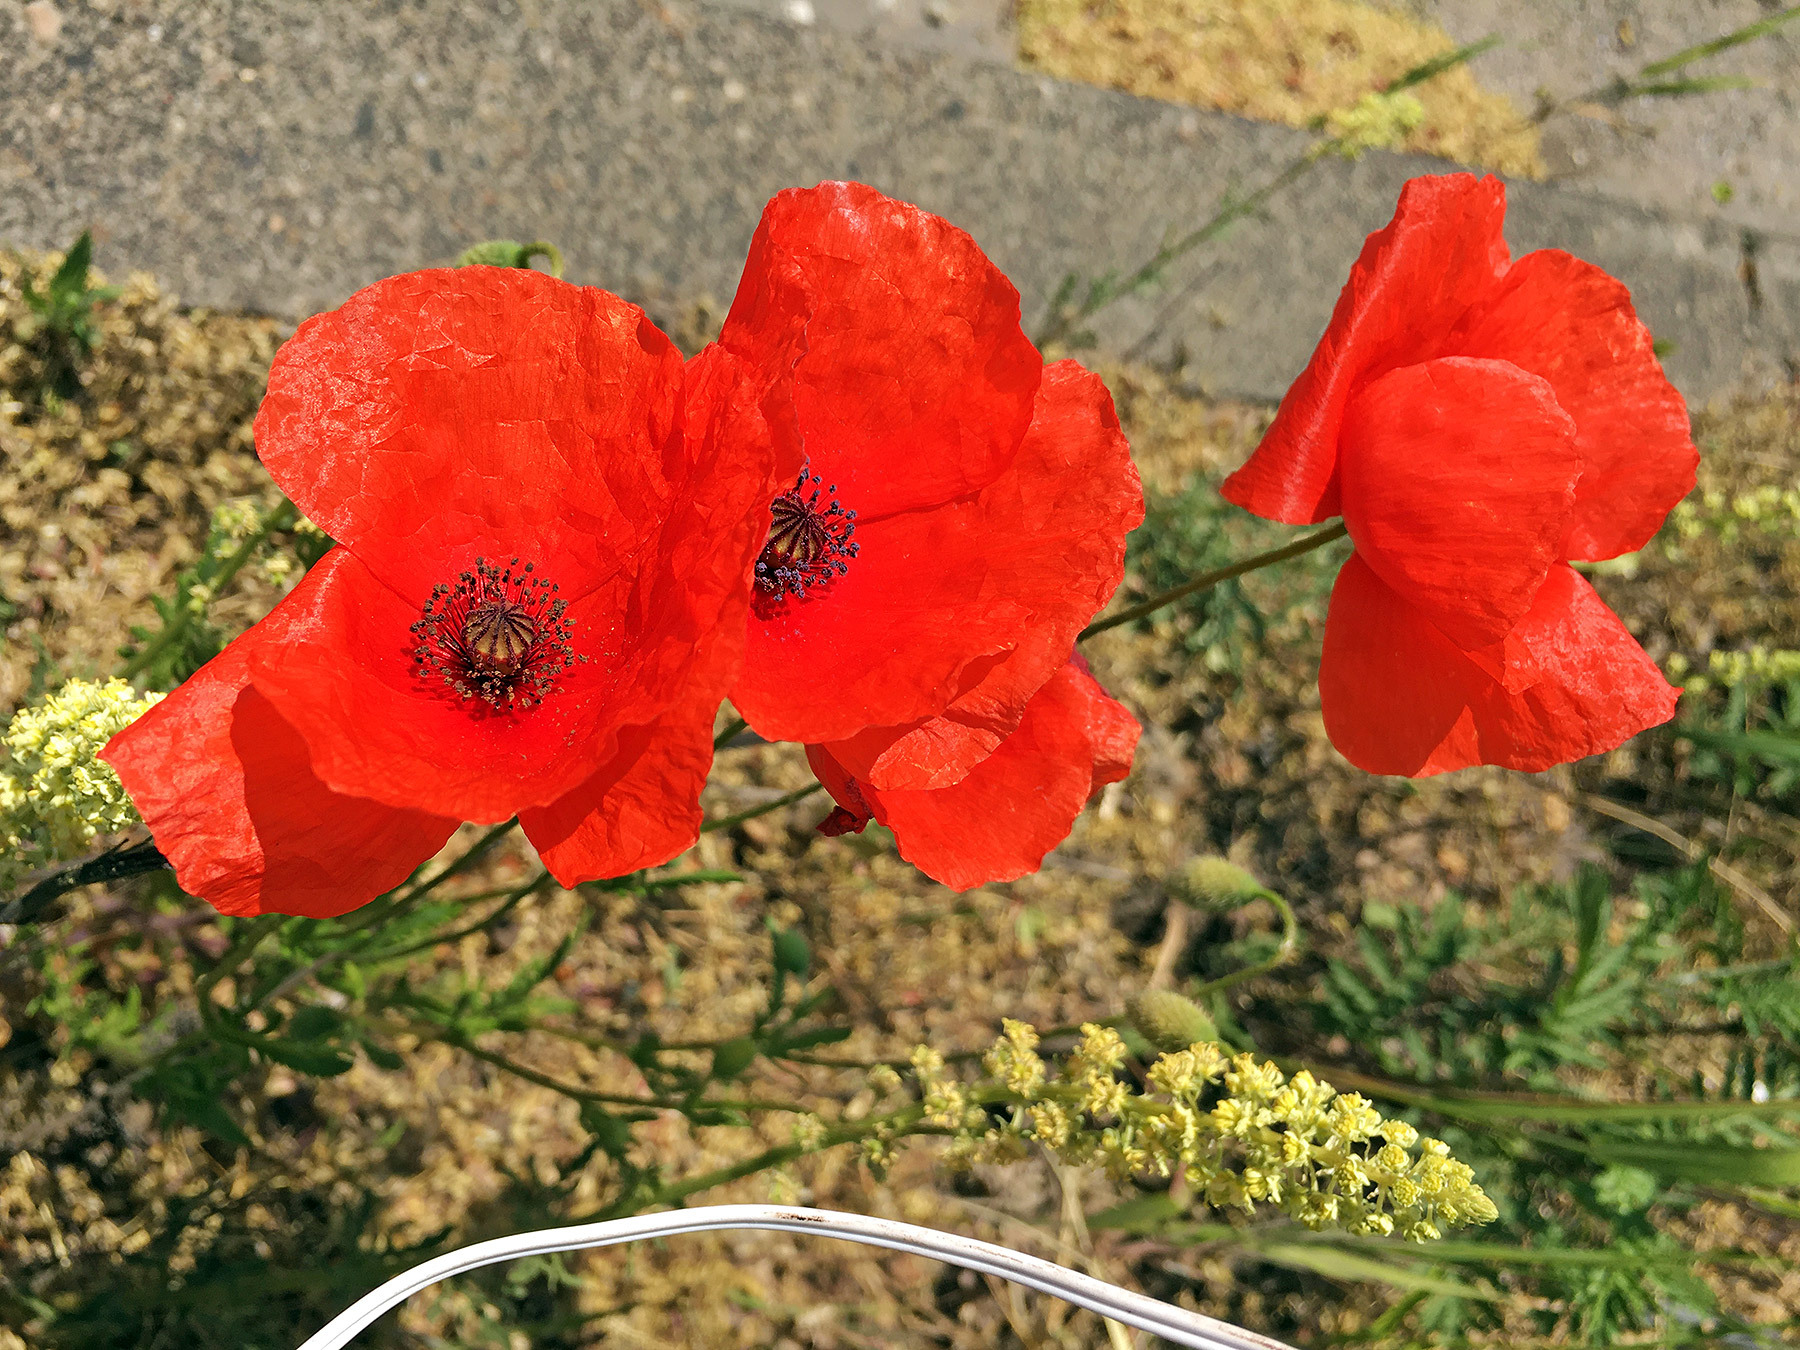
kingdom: Plantae
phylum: Tracheophyta
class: Magnoliopsida
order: Ranunculales
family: Papaveraceae
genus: Papaver
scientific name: Papaver rhoeas
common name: Corn poppy
